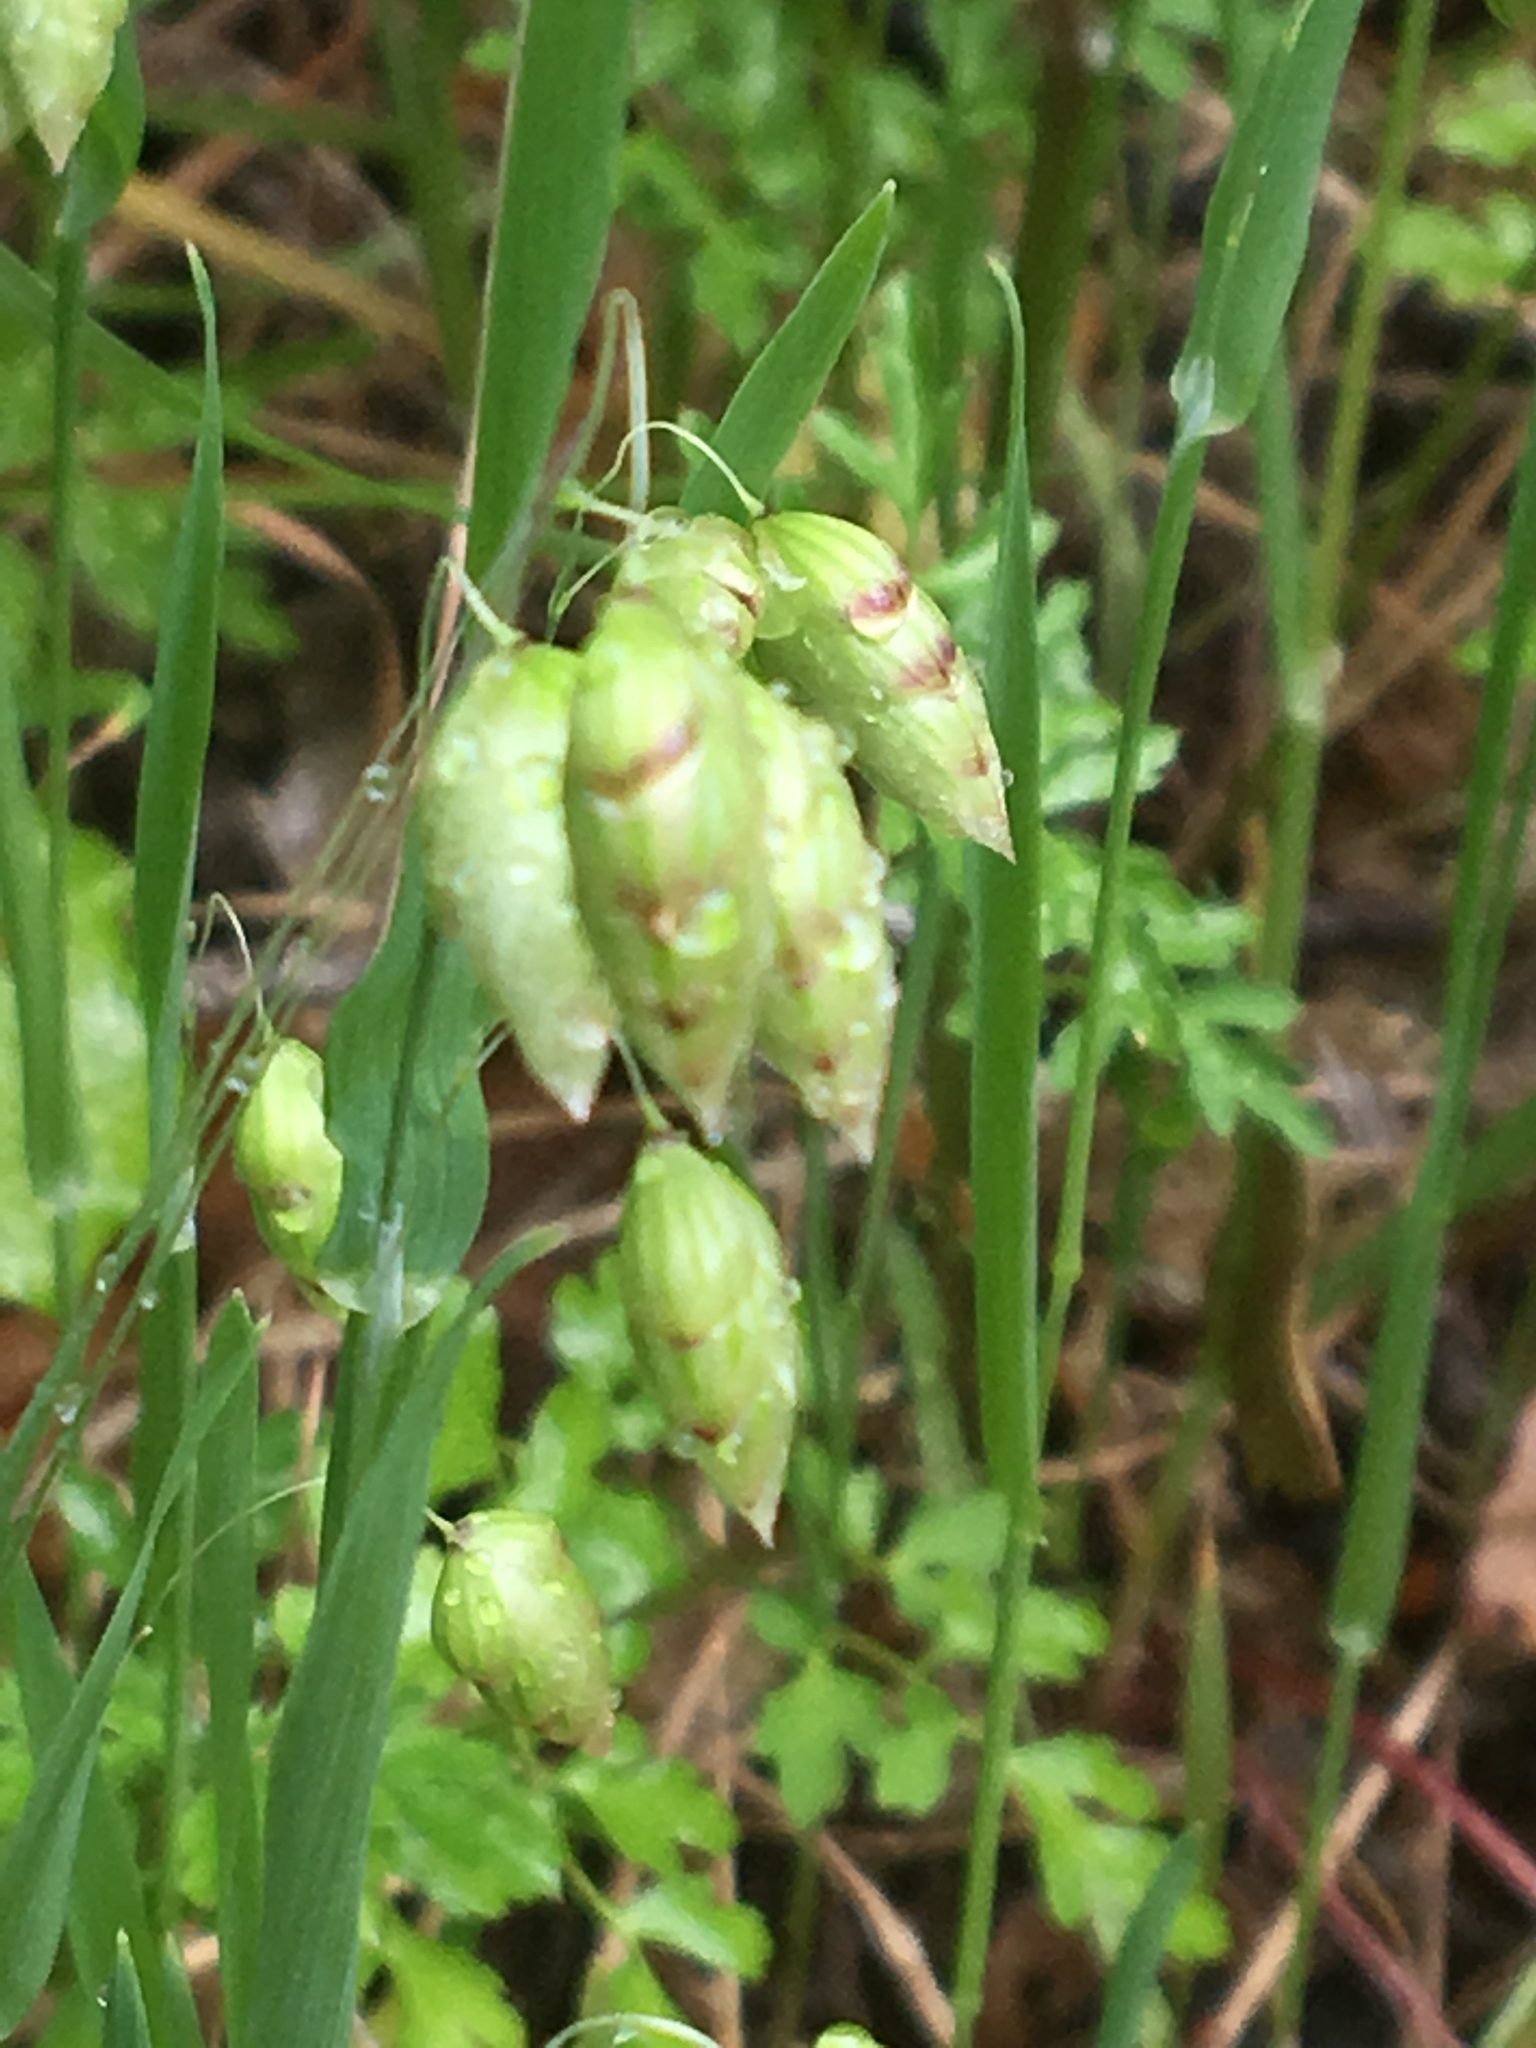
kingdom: Plantae
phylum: Tracheophyta
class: Liliopsida
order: Poales
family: Poaceae
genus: Briza
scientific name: Briza maxima
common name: Big quakinggrass
